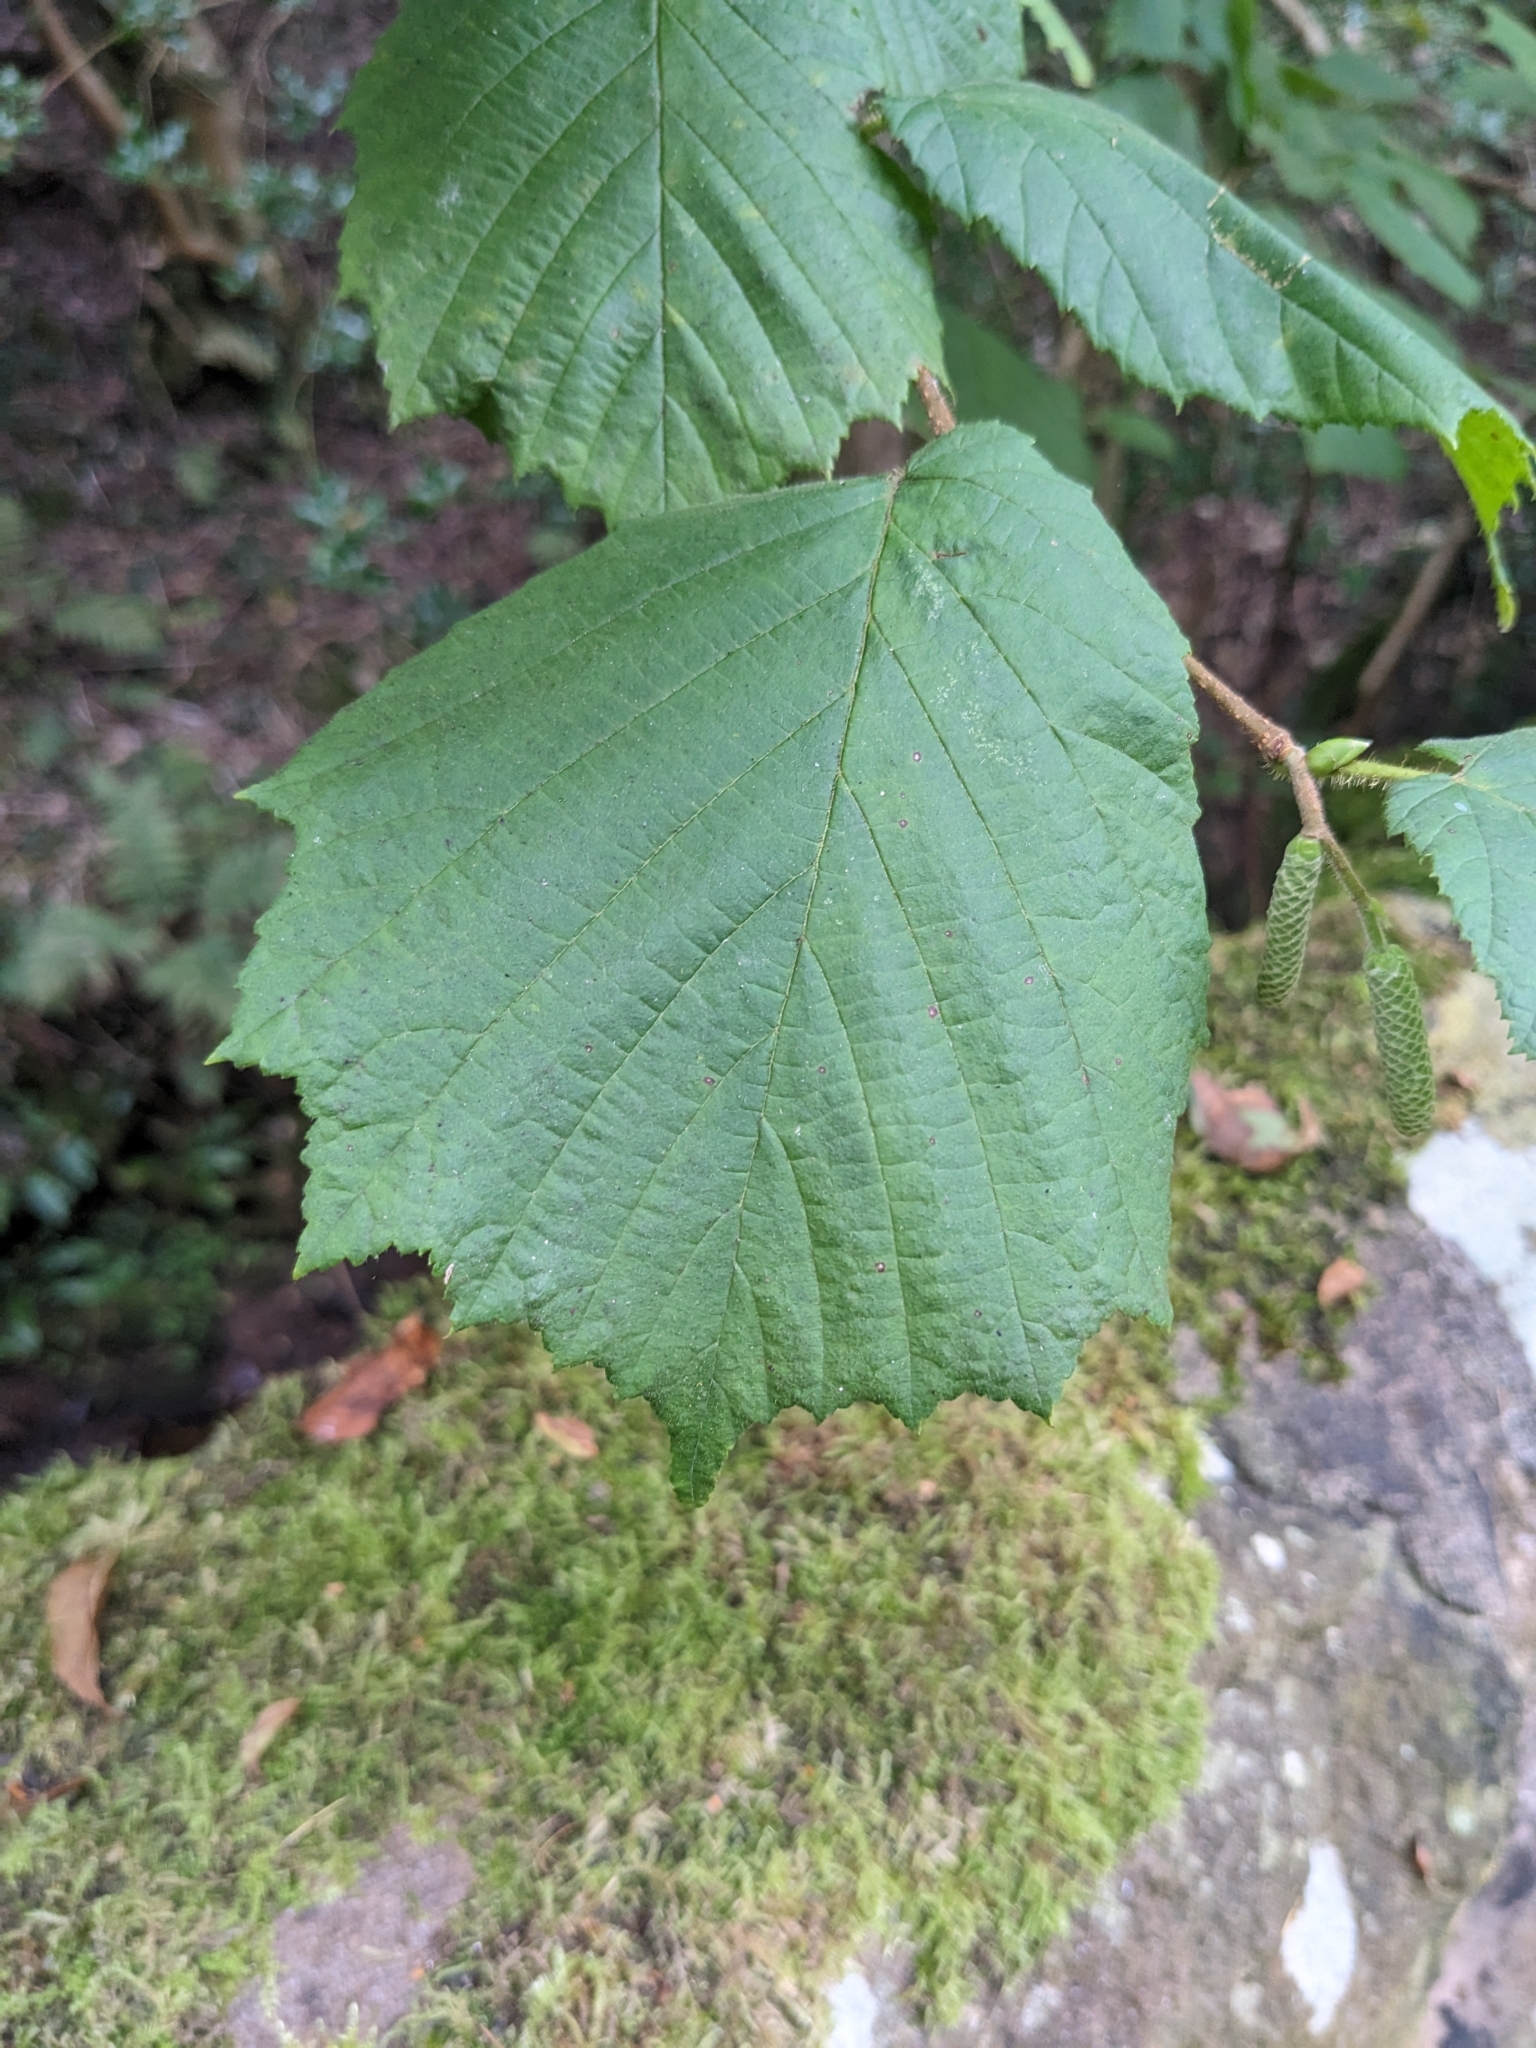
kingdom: Plantae
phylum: Tracheophyta
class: Magnoliopsida
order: Fagales
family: Betulaceae
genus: Corylus
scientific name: Corylus avellana
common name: European hazel
